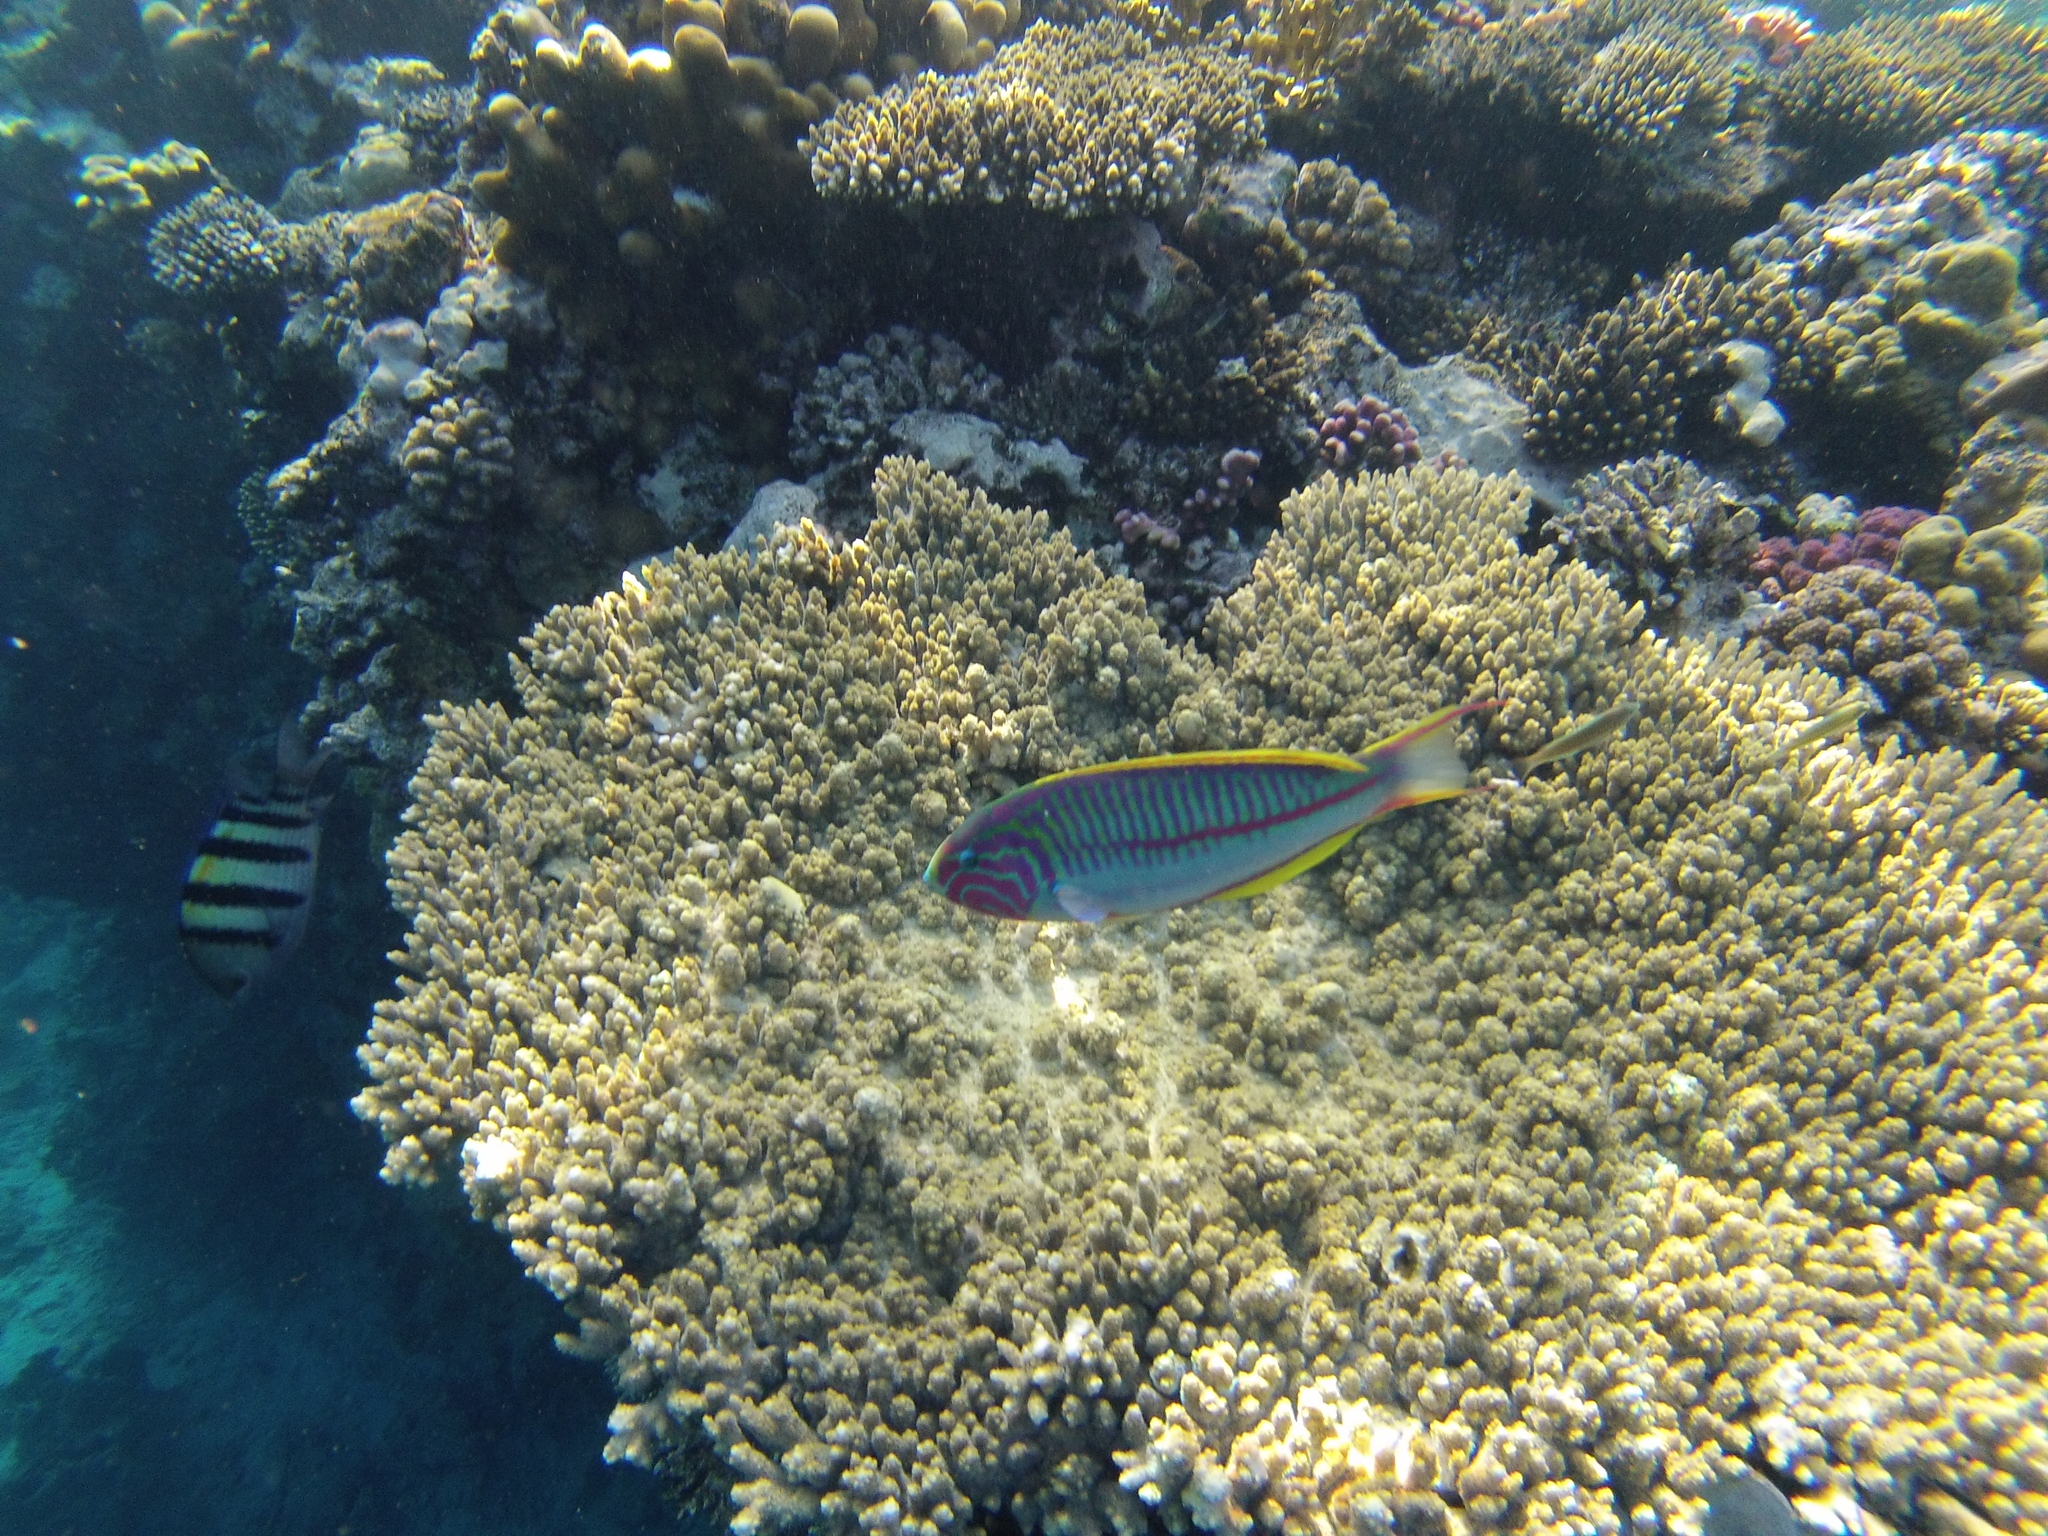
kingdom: Animalia
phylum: Chordata
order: Perciformes
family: Labridae
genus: Thalassoma
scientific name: Thalassoma rueppellii
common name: Klunzinger's wrasse
